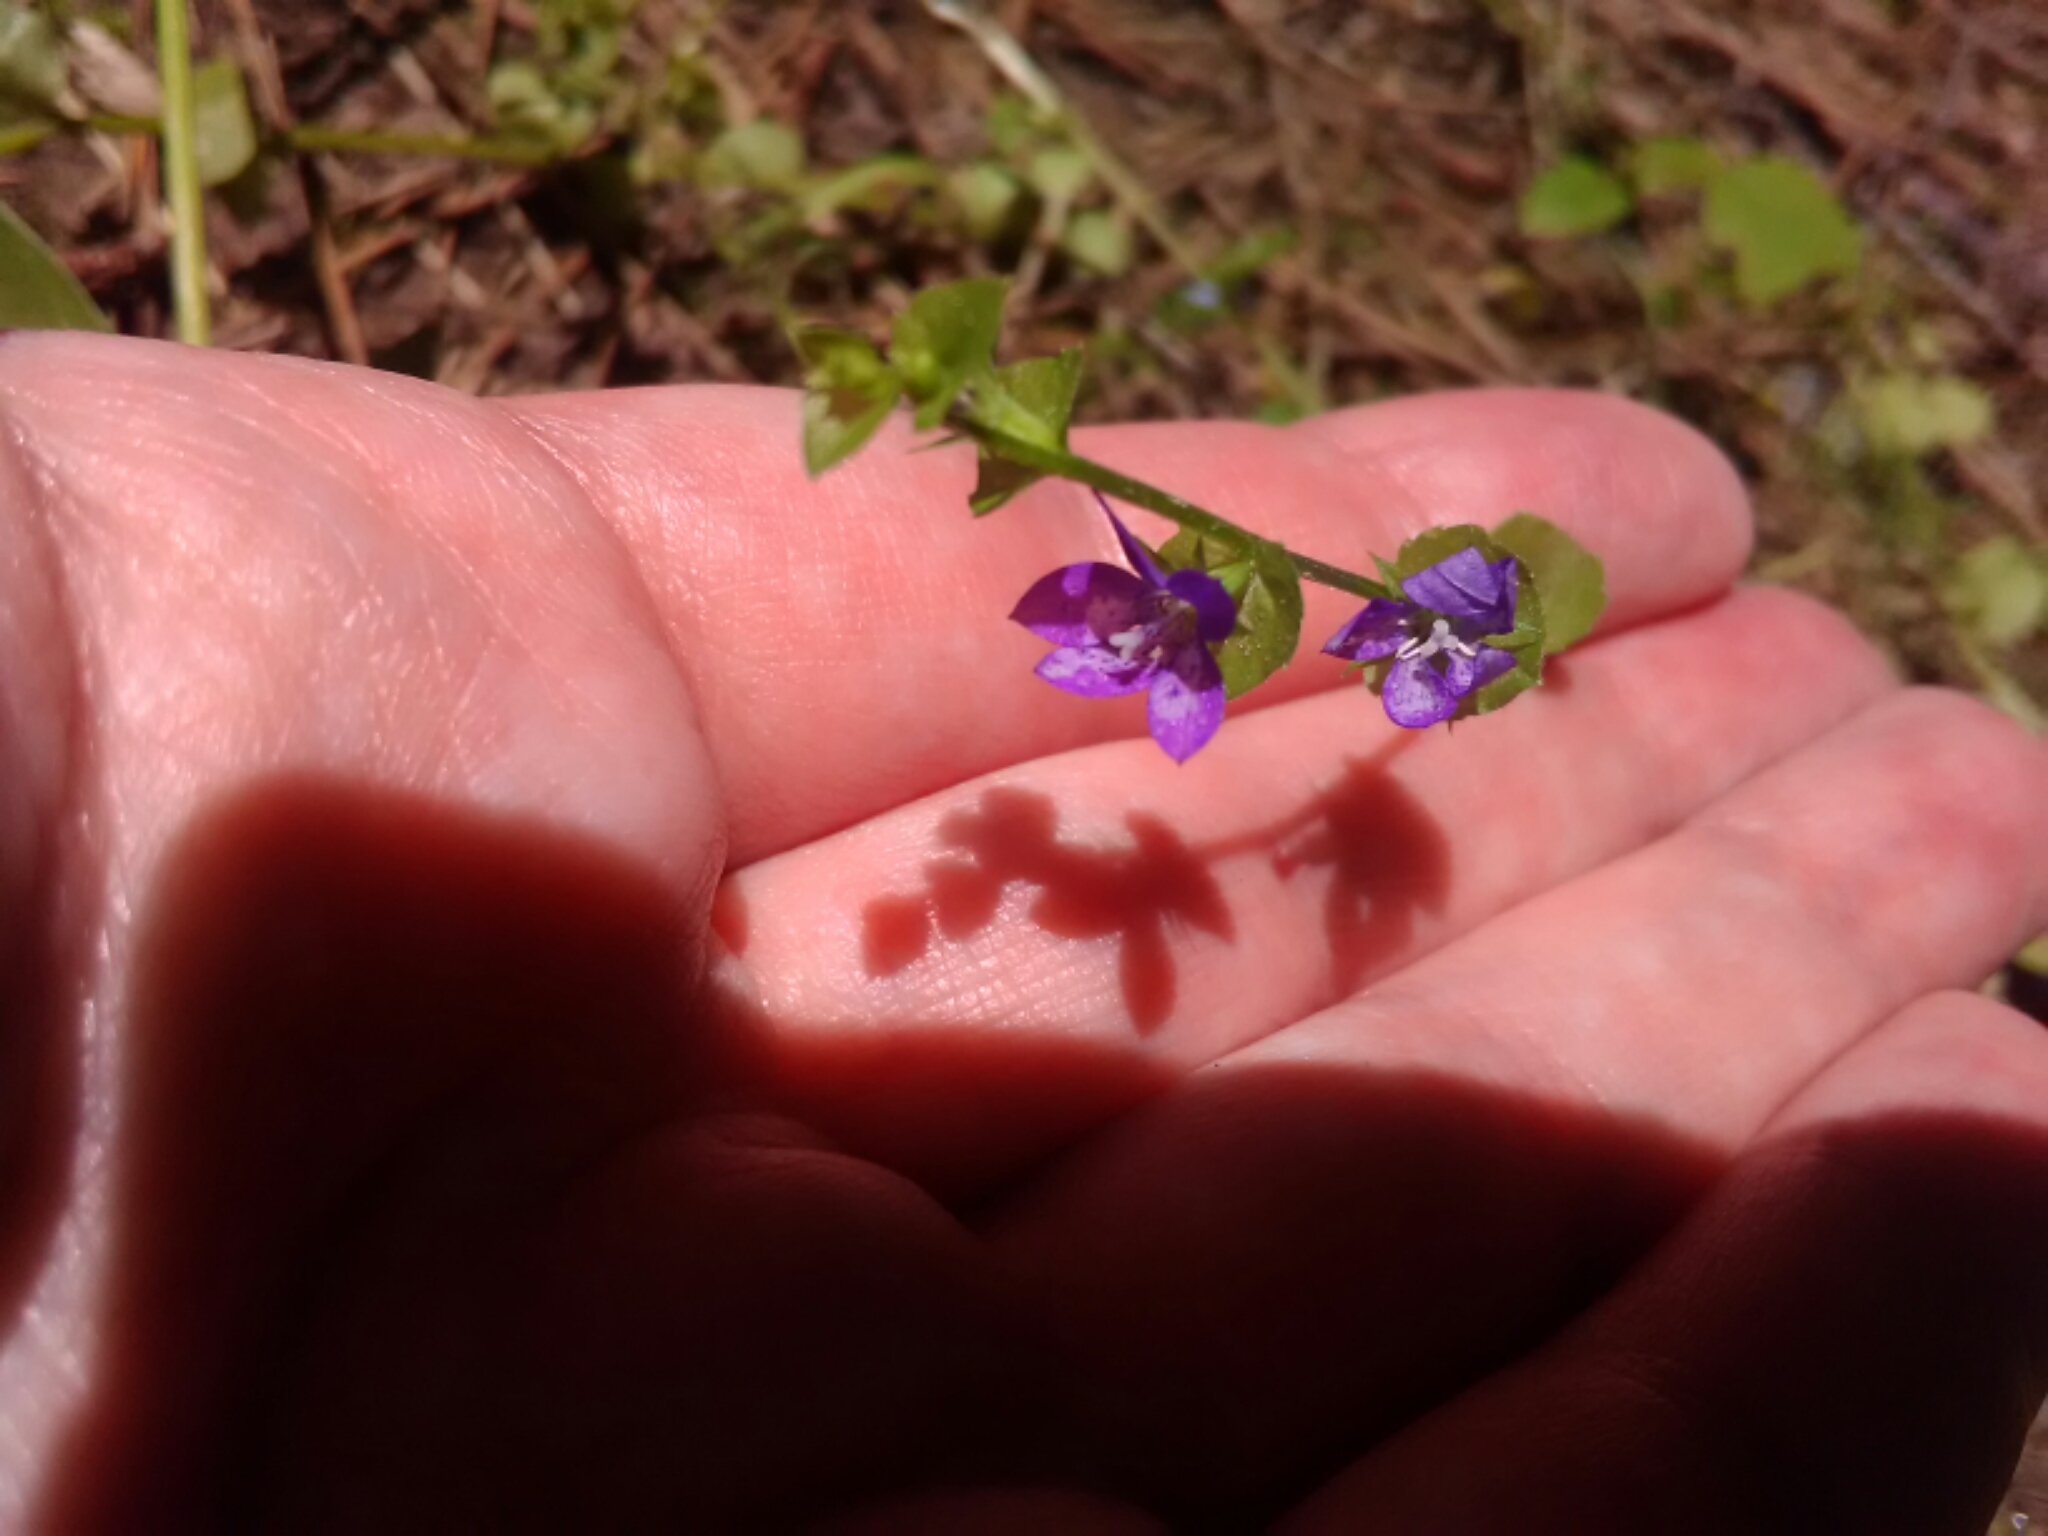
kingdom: Plantae
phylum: Tracheophyta
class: Magnoliopsida
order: Asterales
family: Campanulaceae
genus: Triodanis
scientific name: Triodanis perfoliata
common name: Clasping venus' looking-glass
